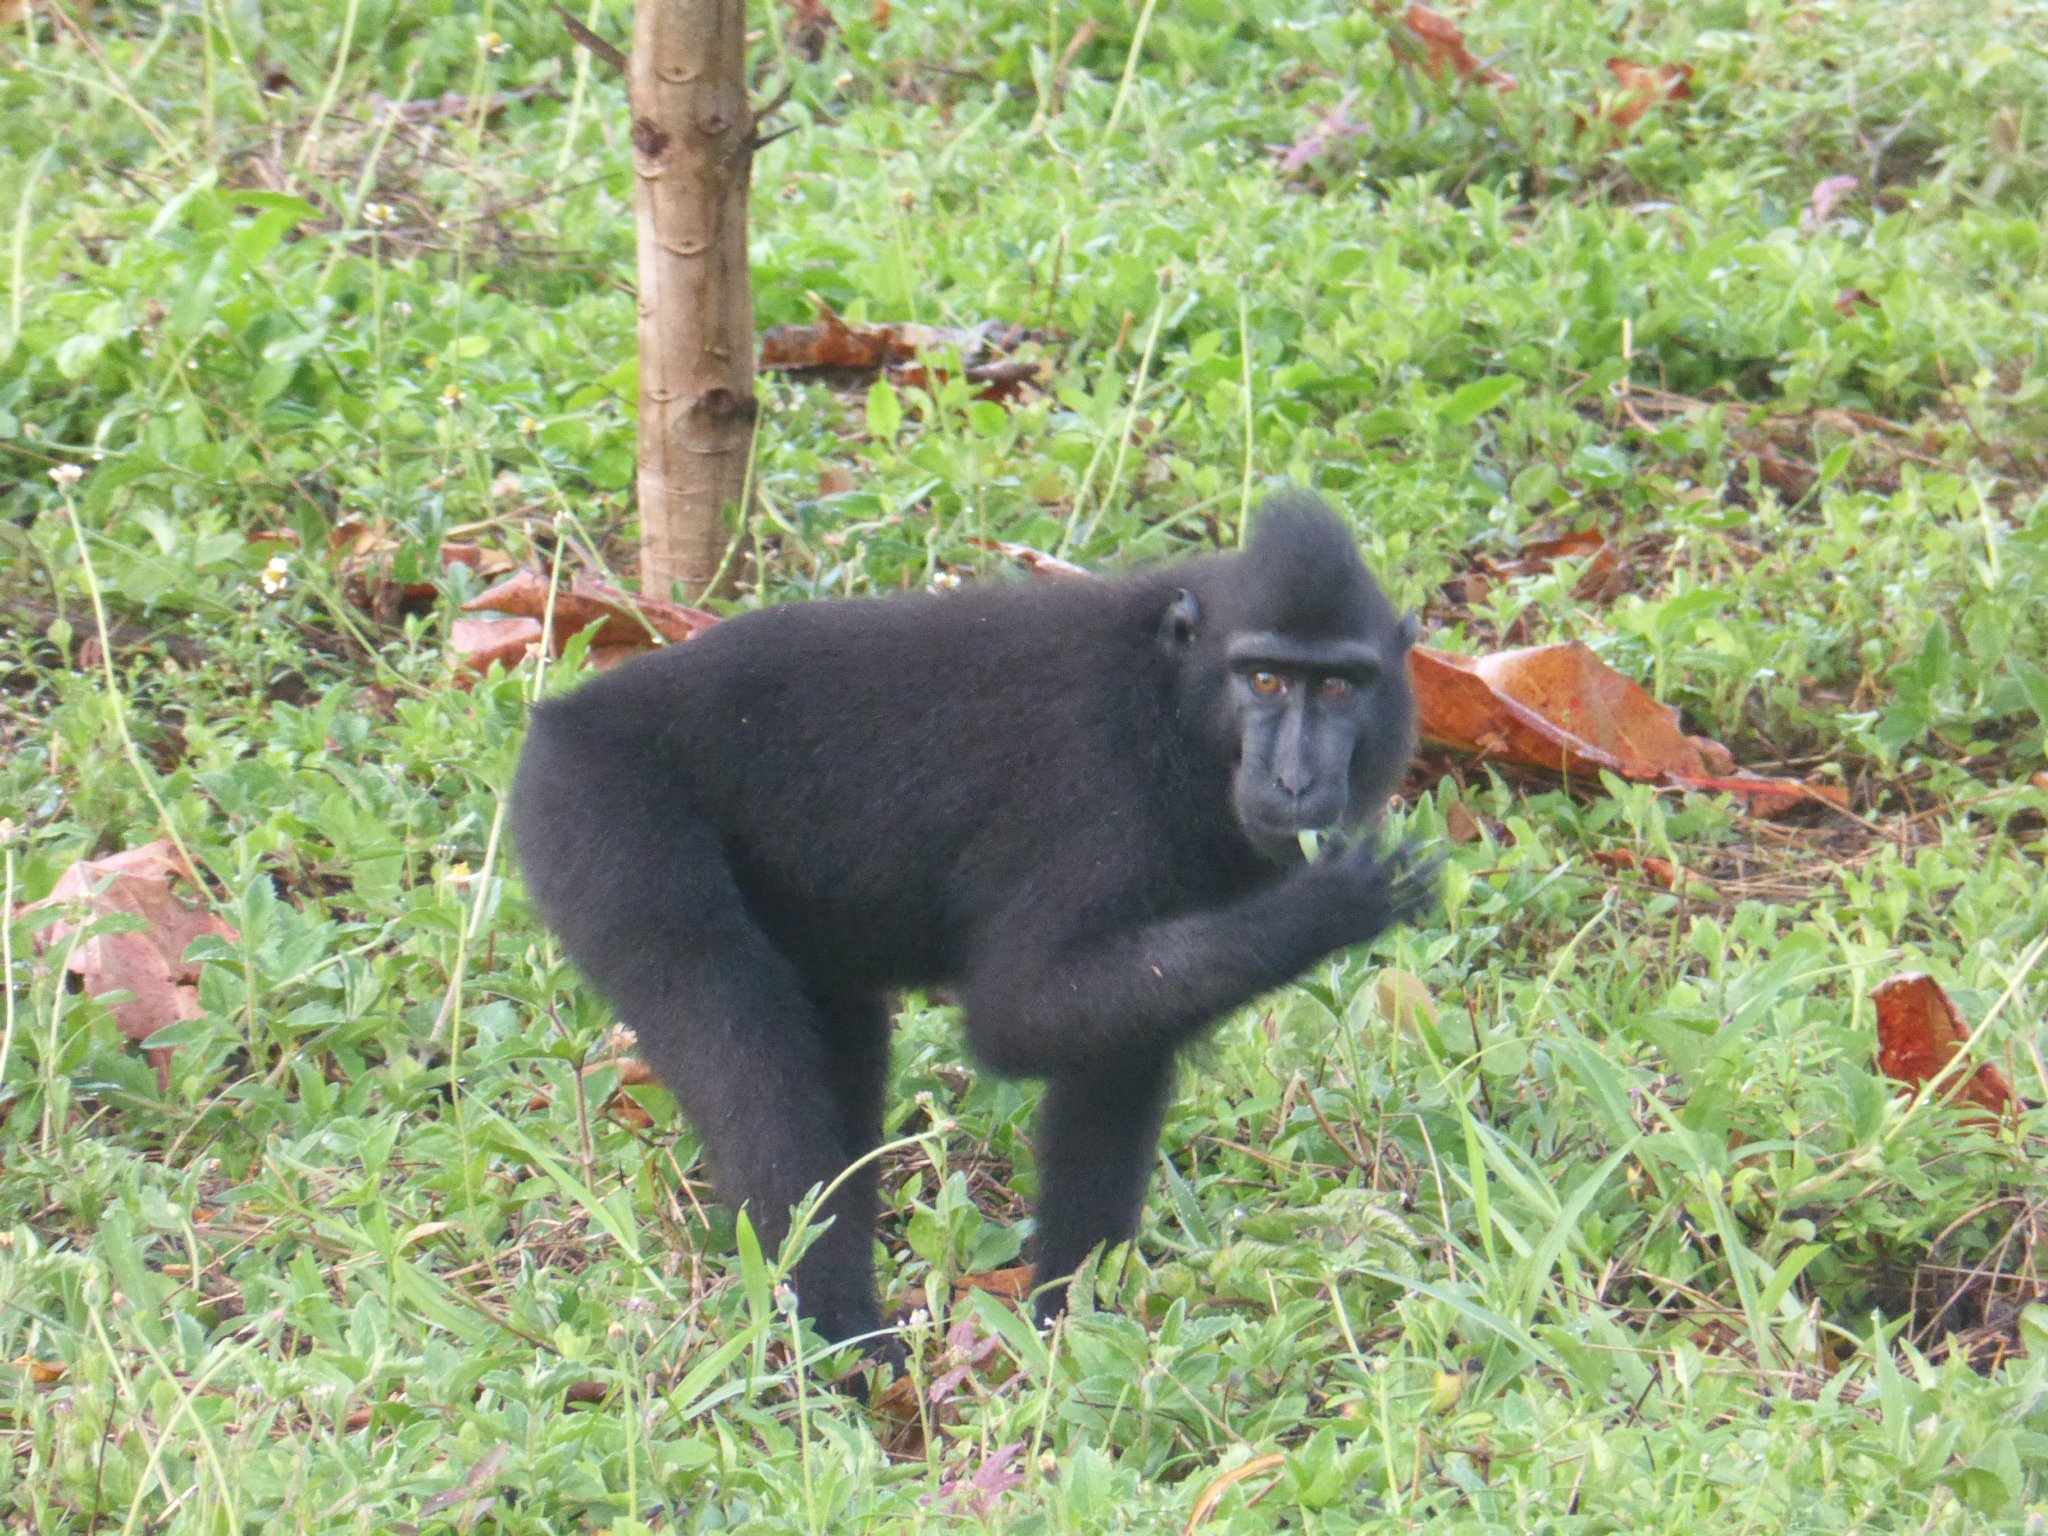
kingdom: Animalia
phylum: Chordata
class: Mammalia
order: Primates
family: Cercopithecidae
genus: Macaca
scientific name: Macaca nigra
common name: Celebes crested macaque
